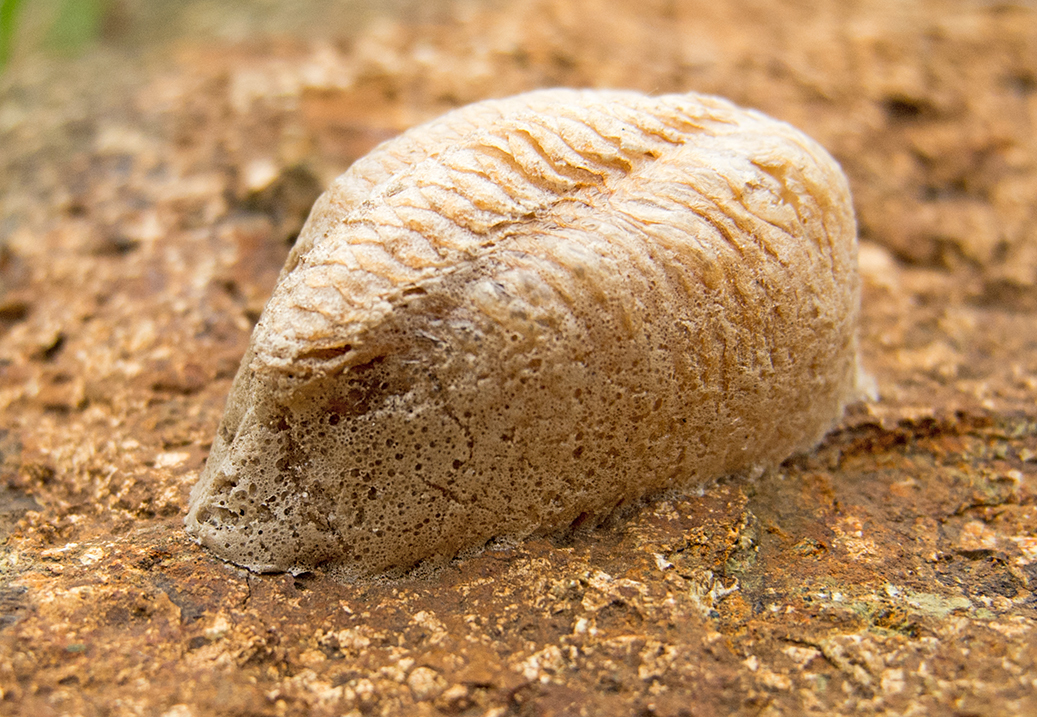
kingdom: Animalia
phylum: Arthropoda
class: Insecta
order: Mantodea
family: Mantidae
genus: Mantis
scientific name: Mantis religiosa
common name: Praying mantis
